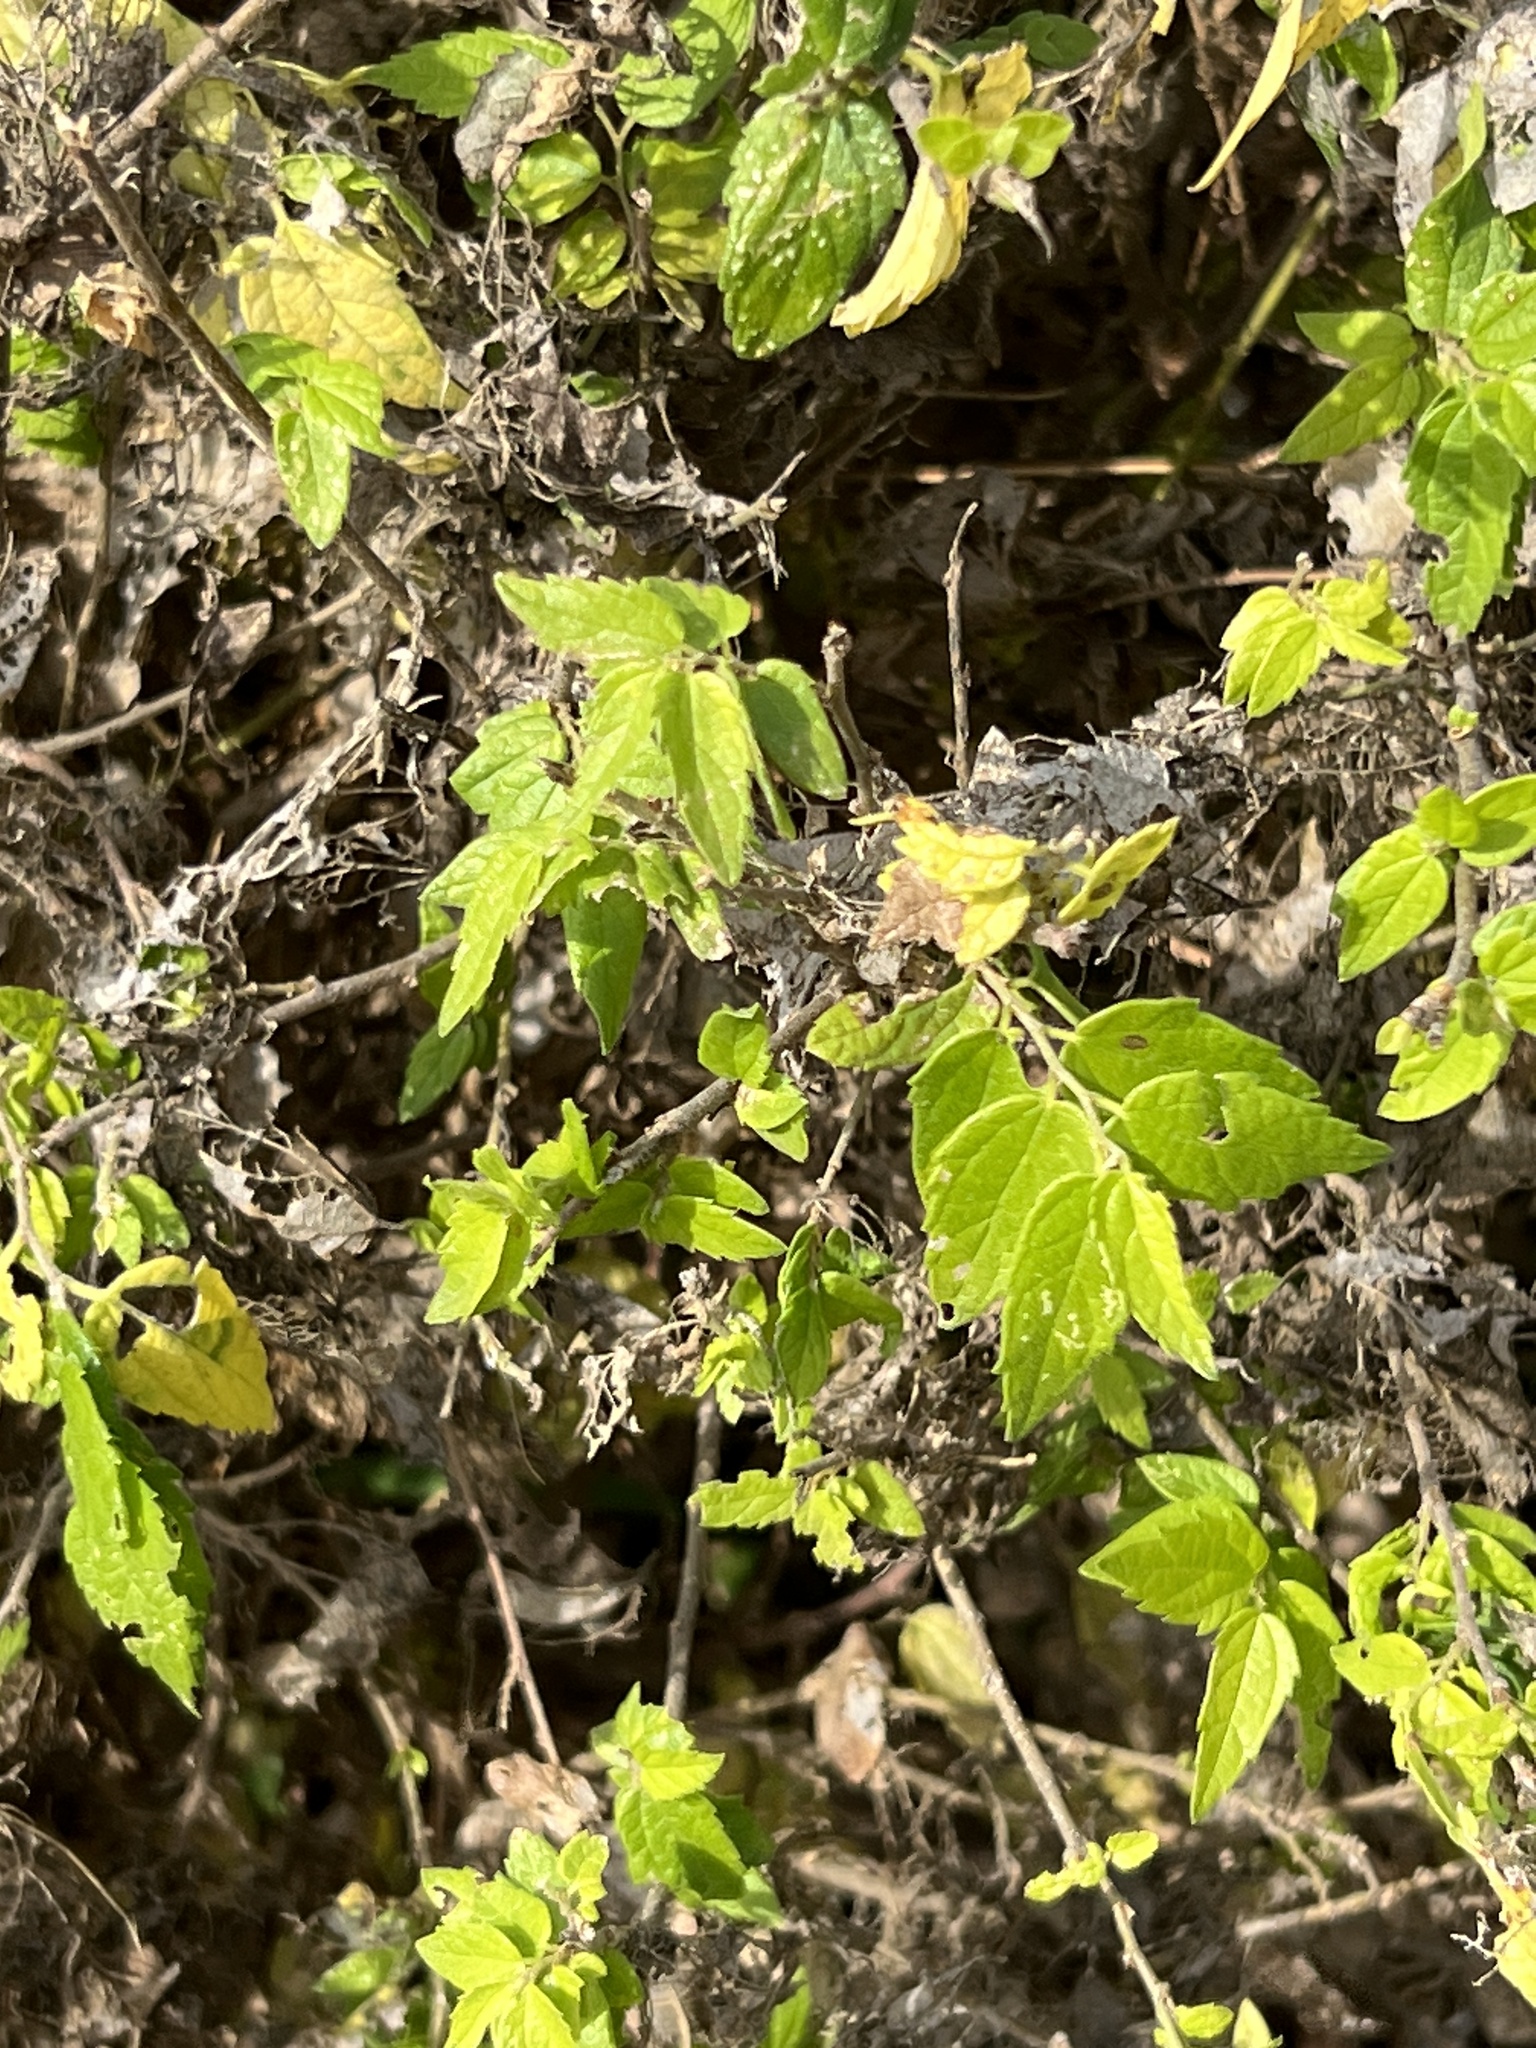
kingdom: Plantae
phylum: Tracheophyta
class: Magnoliopsida
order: Rosales
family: Cannabaceae
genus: Celtis
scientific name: Celtis laevigata
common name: Sugarberry
